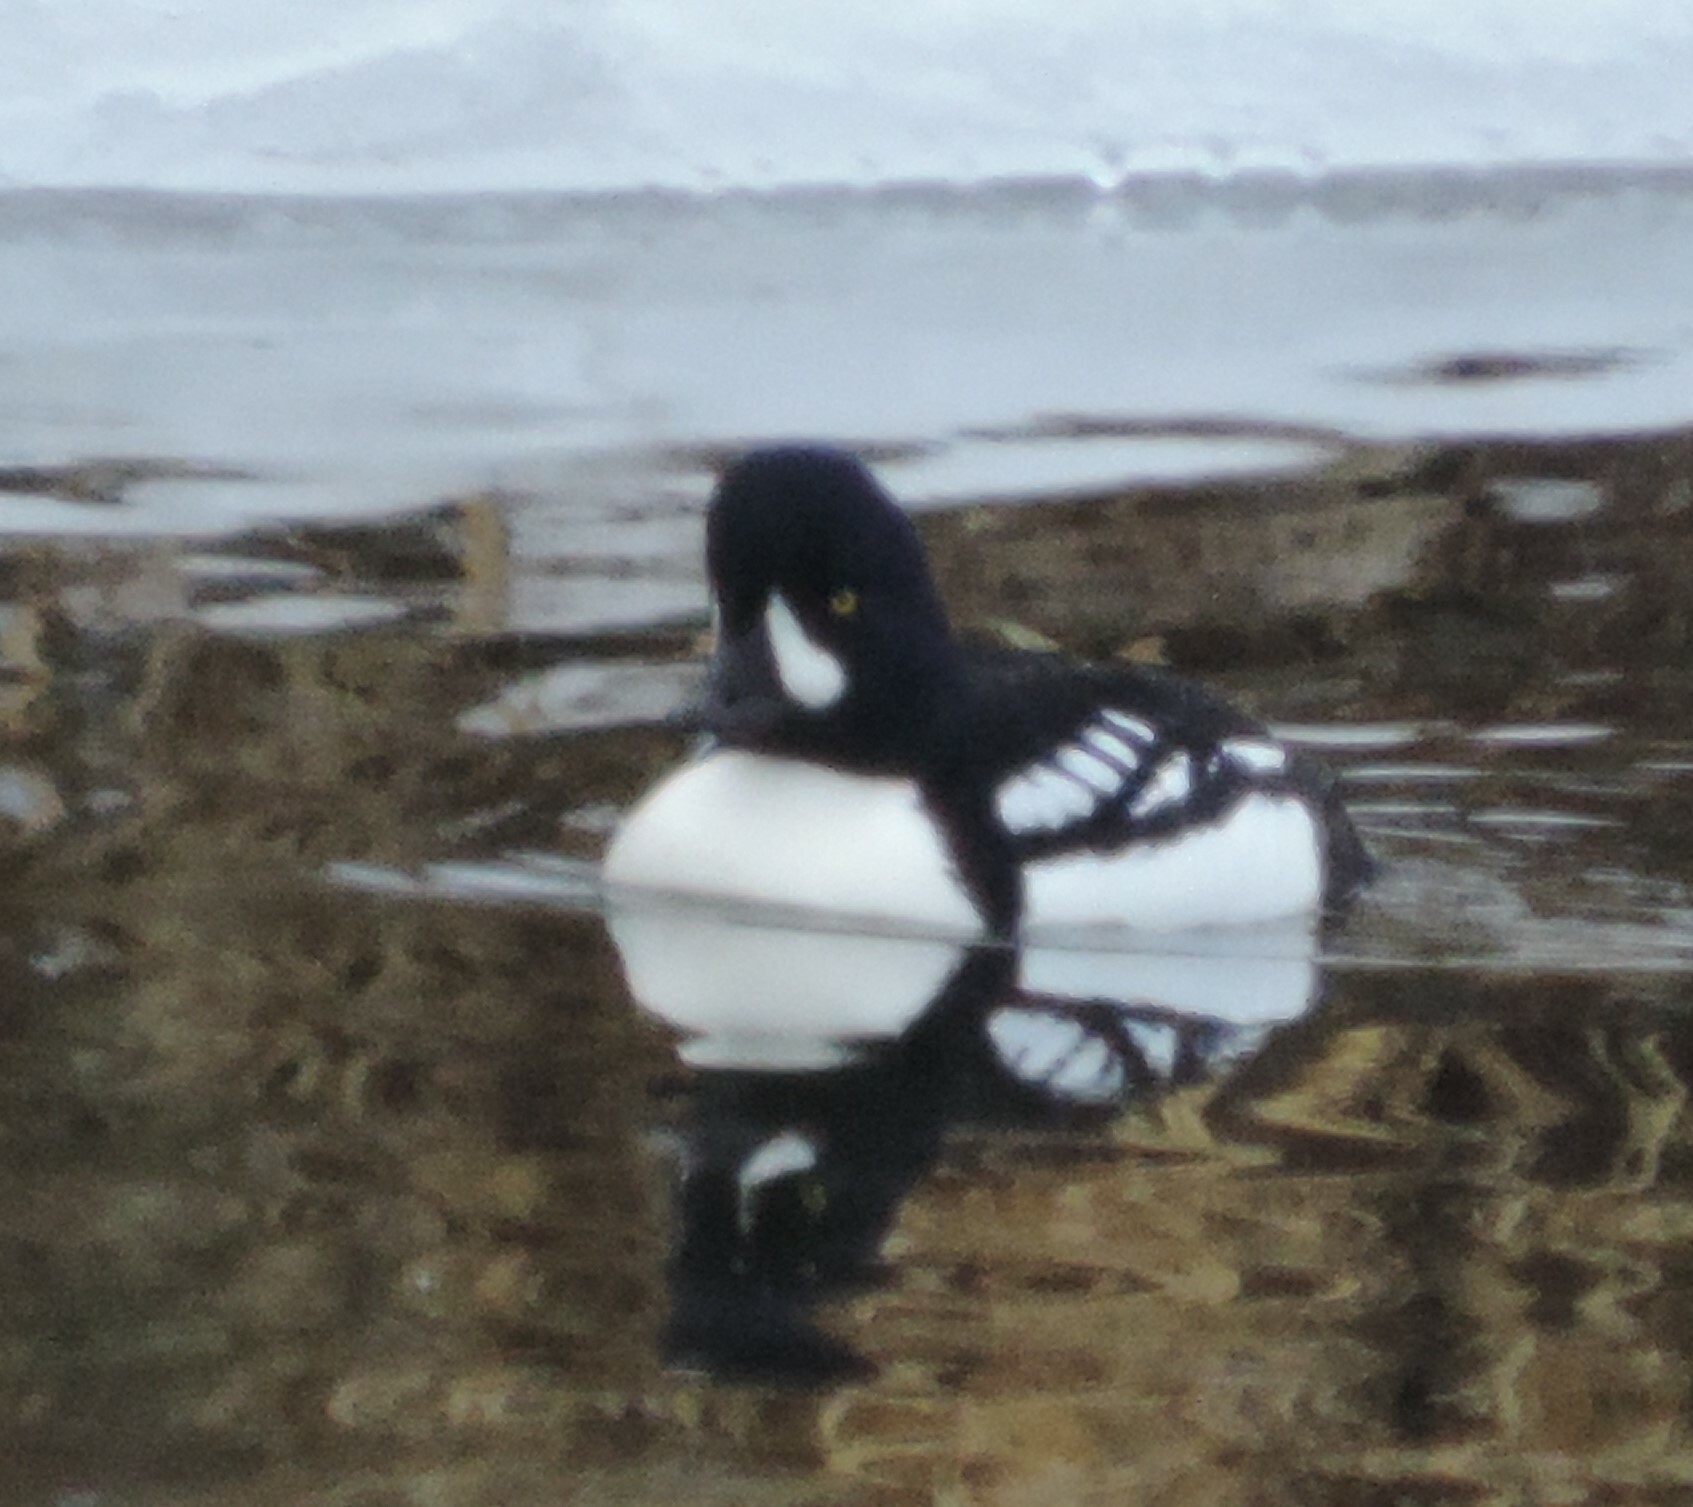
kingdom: Animalia
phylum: Chordata
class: Aves
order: Anseriformes
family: Anatidae
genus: Bucephala
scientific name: Bucephala islandica
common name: Barrow's goldeneye
